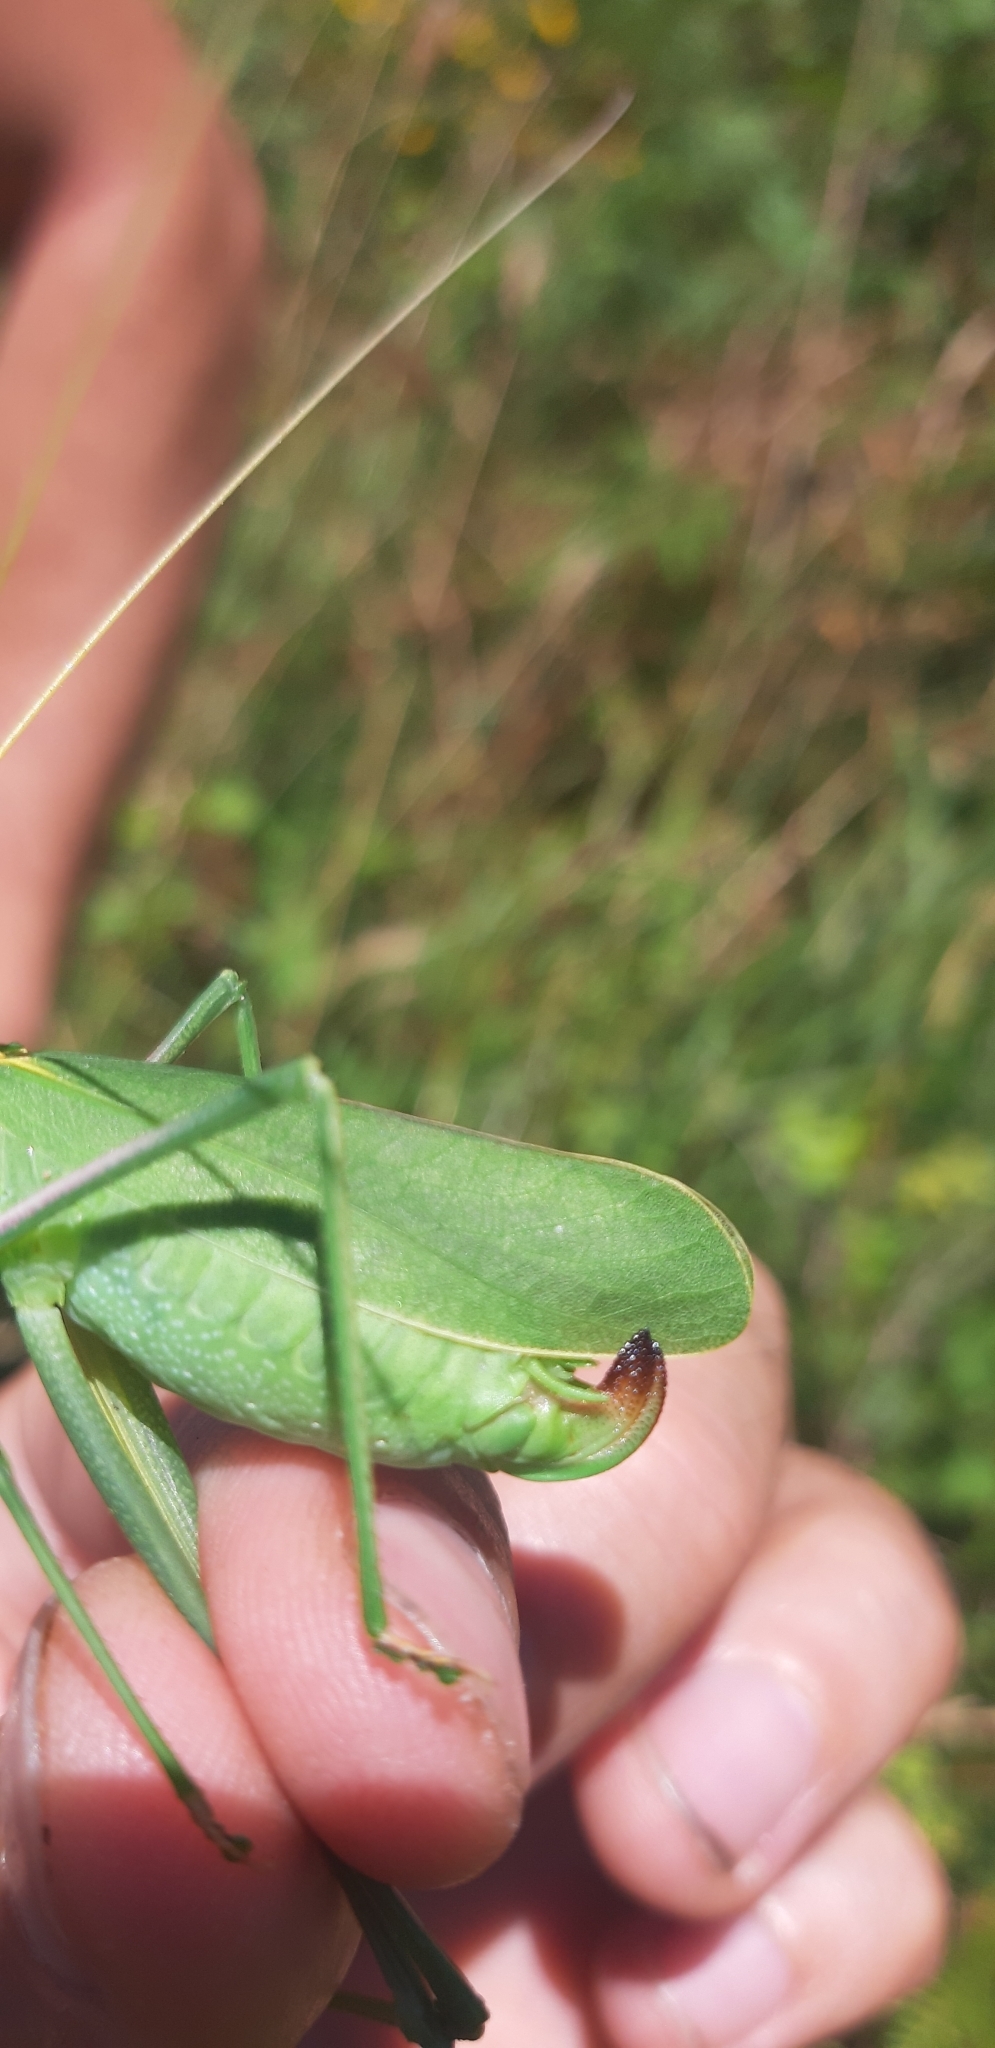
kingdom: Animalia
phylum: Arthropoda
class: Insecta
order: Orthoptera
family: Tettigoniidae
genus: Acrometopa
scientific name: Acrometopa italica
